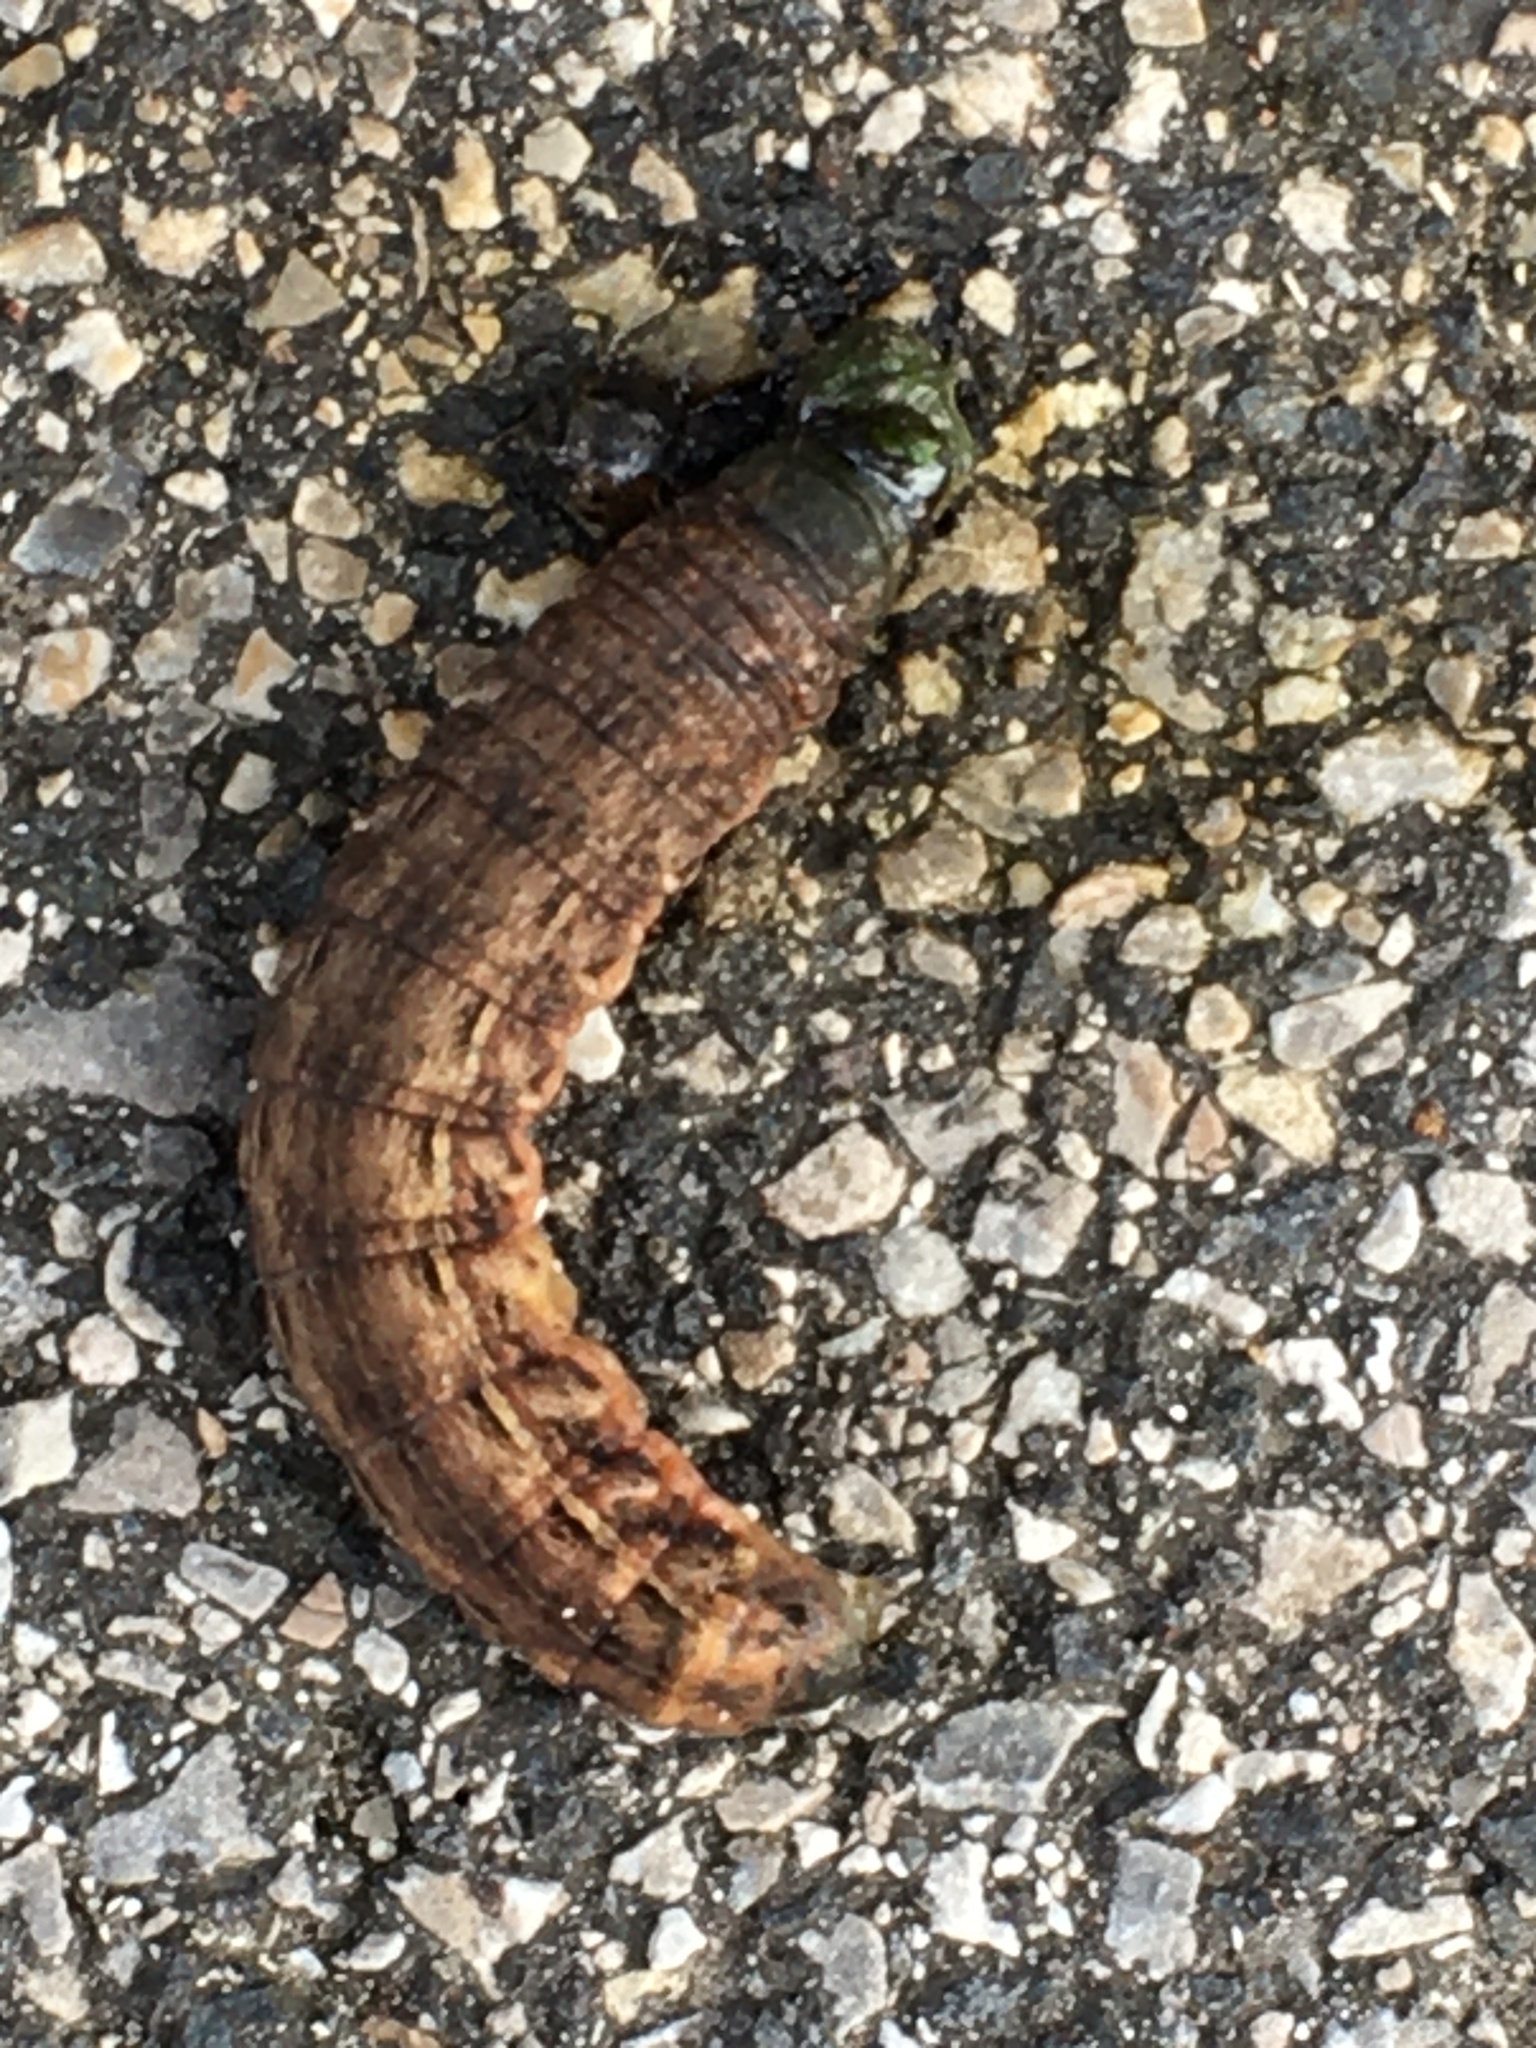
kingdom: Animalia
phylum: Arthropoda
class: Insecta
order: Lepidoptera
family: Noctuidae
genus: Noctua
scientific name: Noctua pronuba
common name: Large yellow underwing
